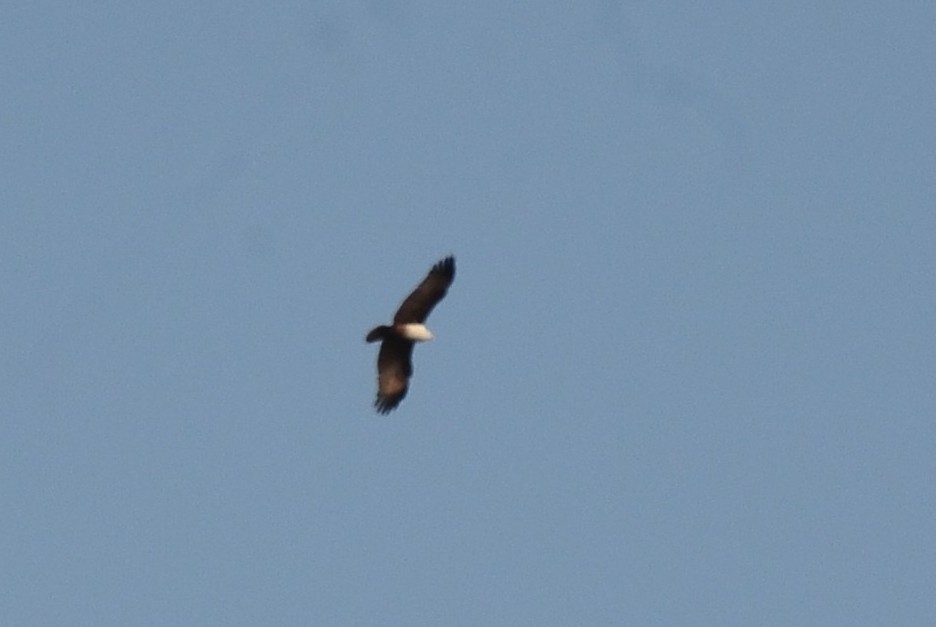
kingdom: Animalia
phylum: Chordata
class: Aves
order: Accipitriformes
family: Accipitridae
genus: Haliastur
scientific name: Haliastur indus
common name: Brahminy kite
